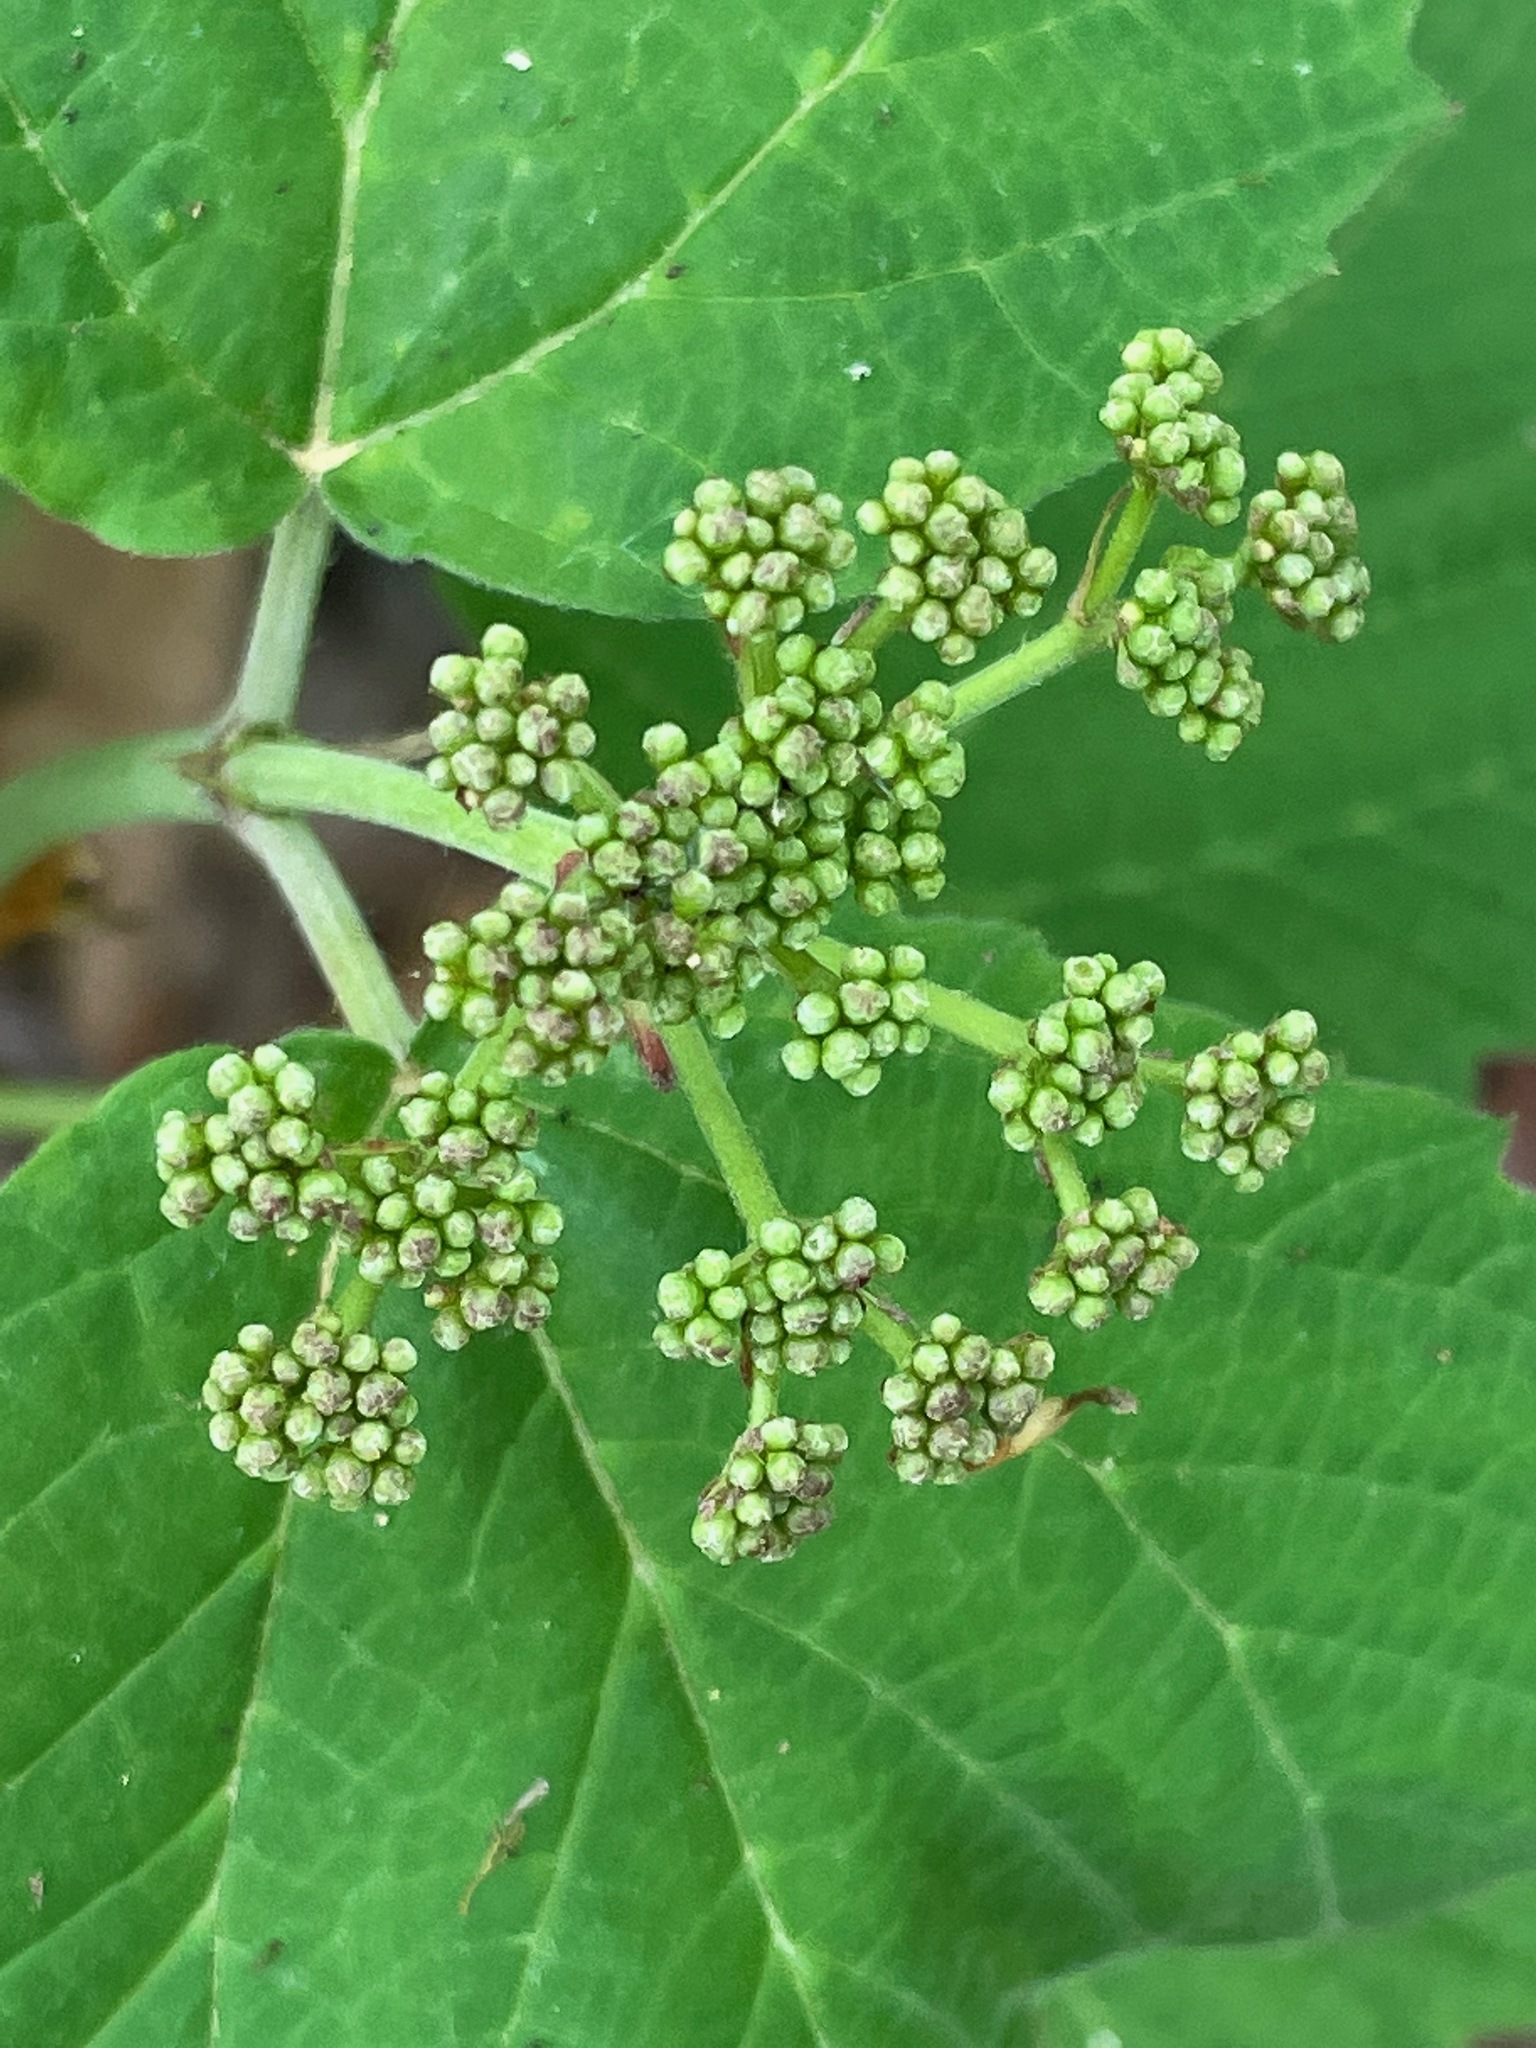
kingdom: Plantae
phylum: Tracheophyta
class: Magnoliopsida
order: Dipsacales
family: Viburnaceae
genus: Viburnum
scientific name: Viburnum acerifolium
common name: Dockmackie
